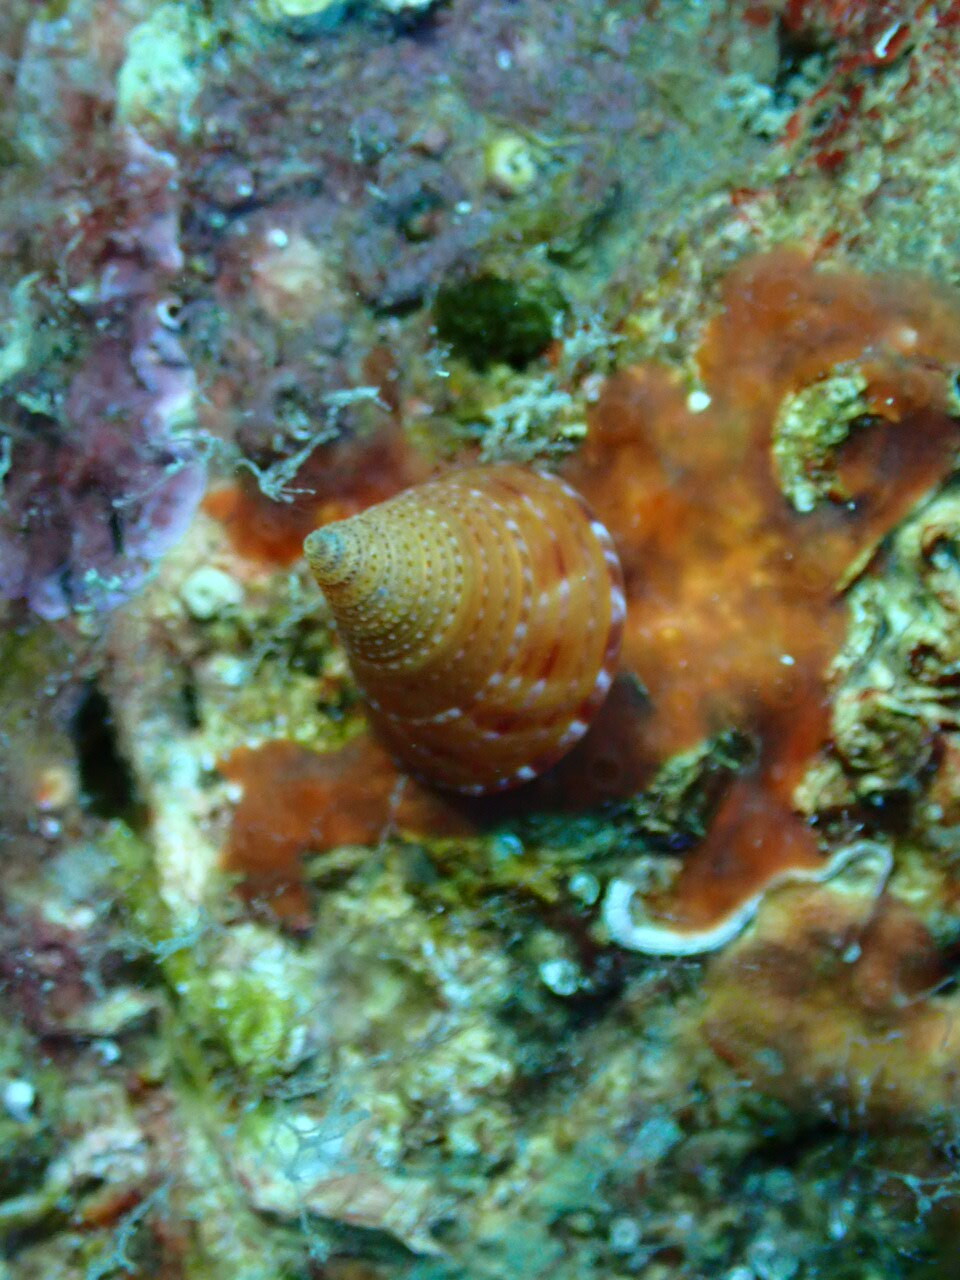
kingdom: Animalia
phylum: Mollusca
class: Gastropoda
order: Trochida
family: Calliostomatidae
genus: Calliostoma
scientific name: Calliostoma zizyphinum
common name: Painted top shell
